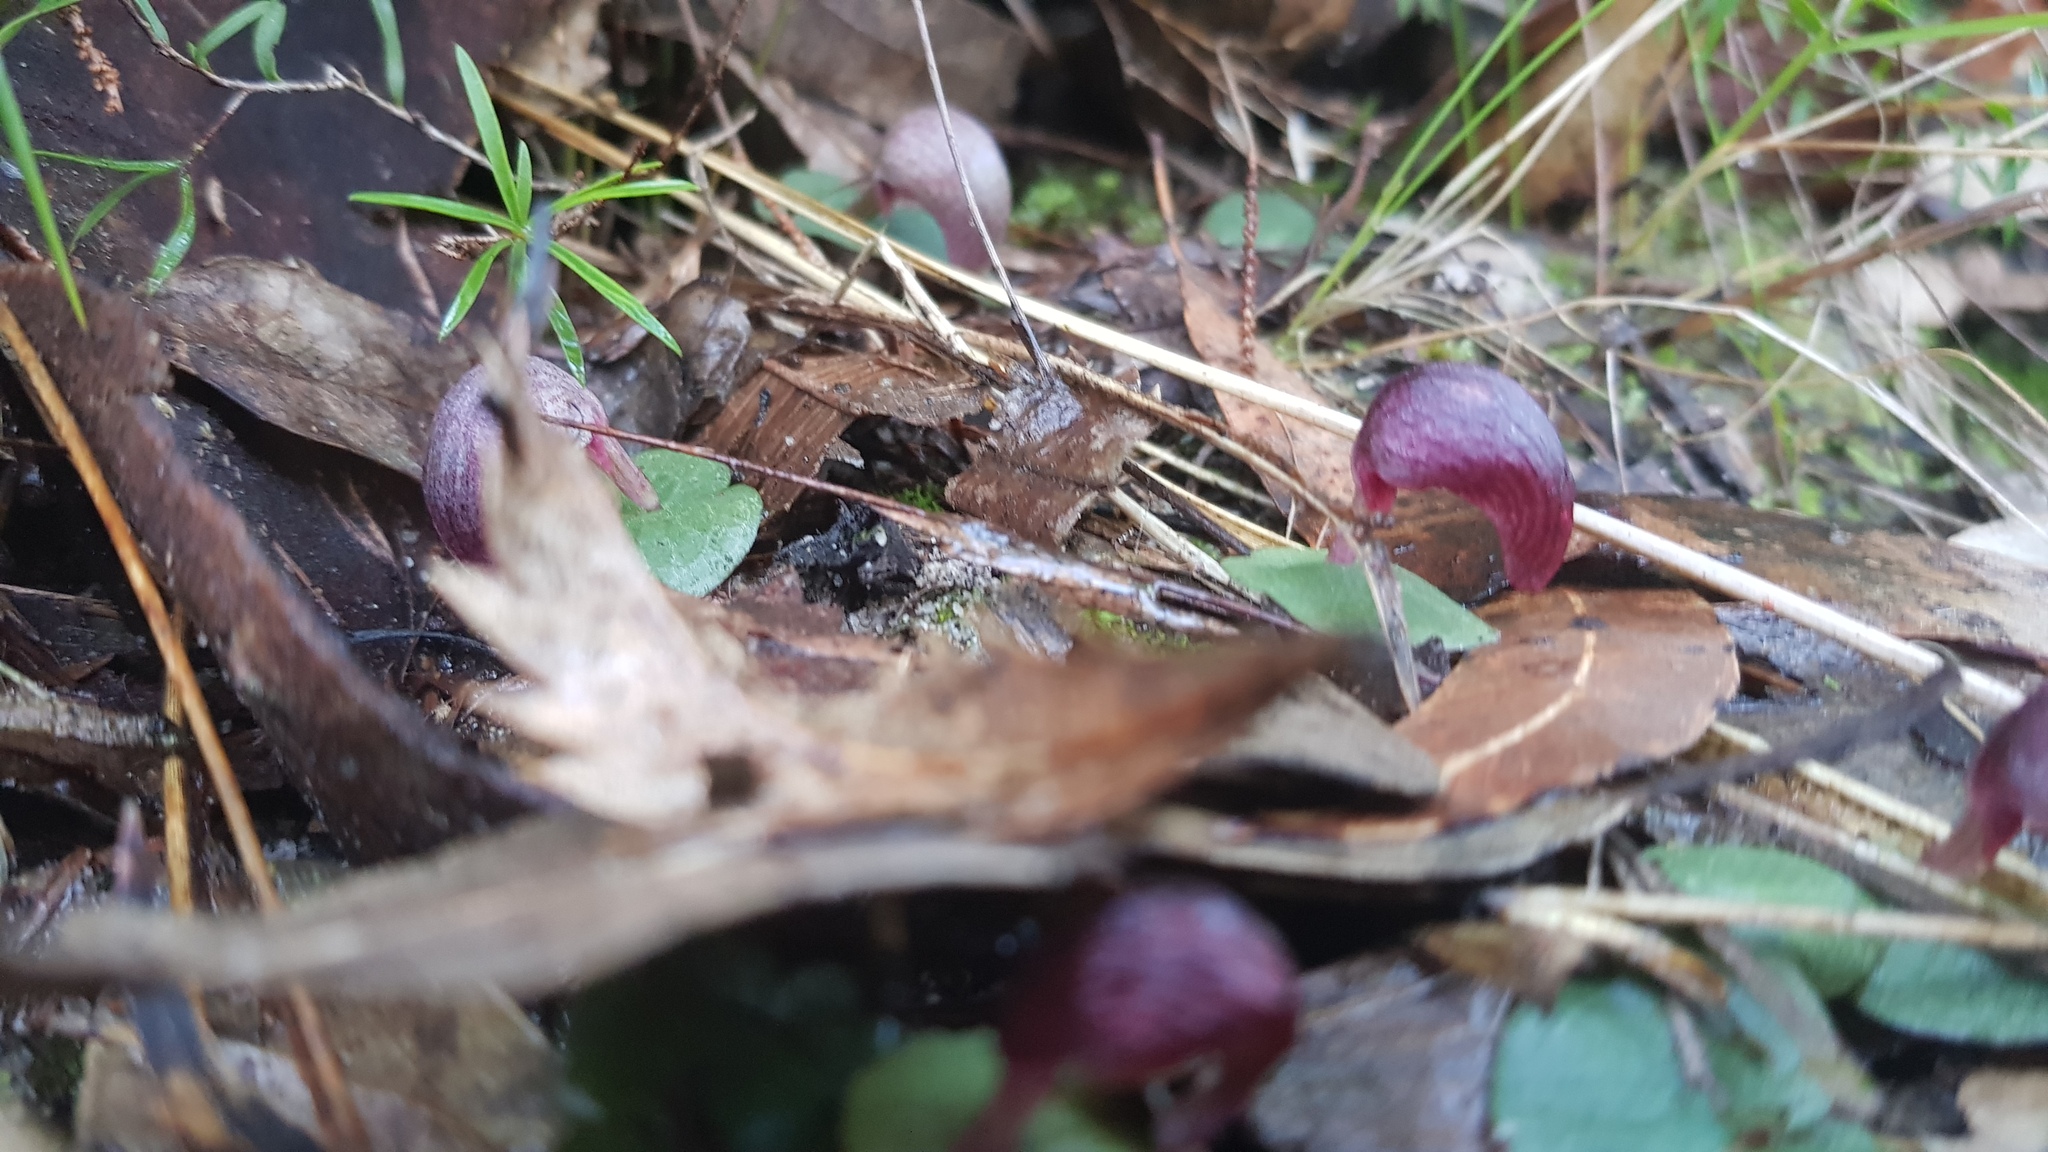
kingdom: Plantae
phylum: Tracheophyta
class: Liliopsida
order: Asparagales
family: Orchidaceae
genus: Corybas
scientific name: Corybas aconitiflorus
